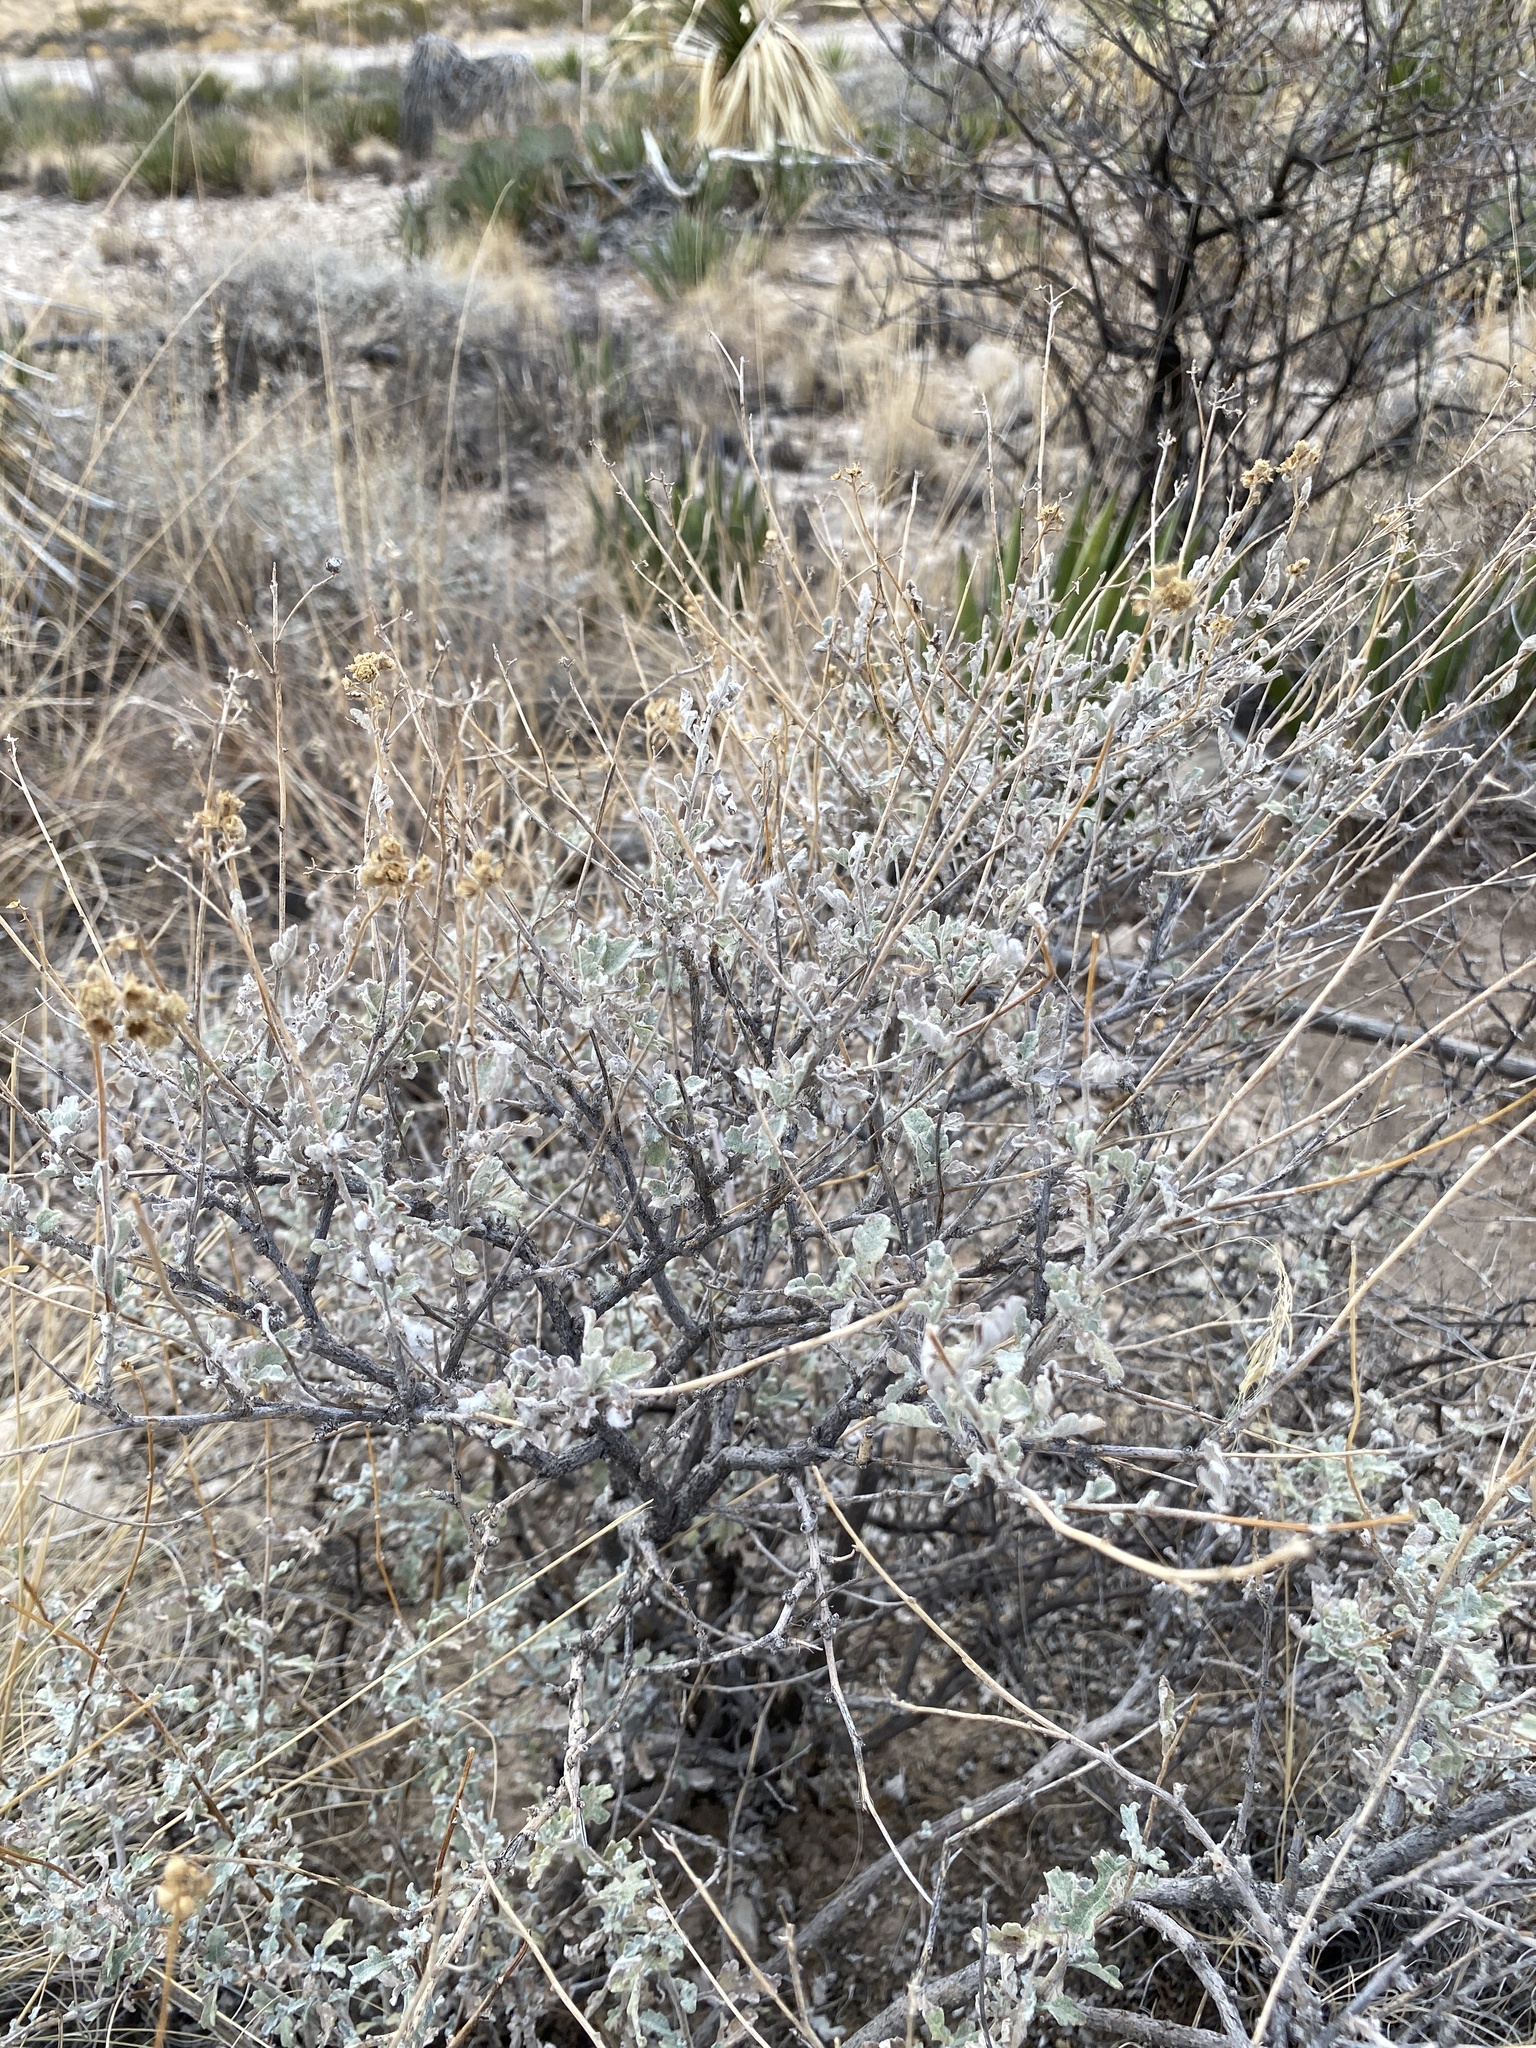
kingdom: Plantae
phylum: Tracheophyta
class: Magnoliopsida
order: Asterales
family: Asteraceae
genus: Parthenium
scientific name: Parthenium incanum
